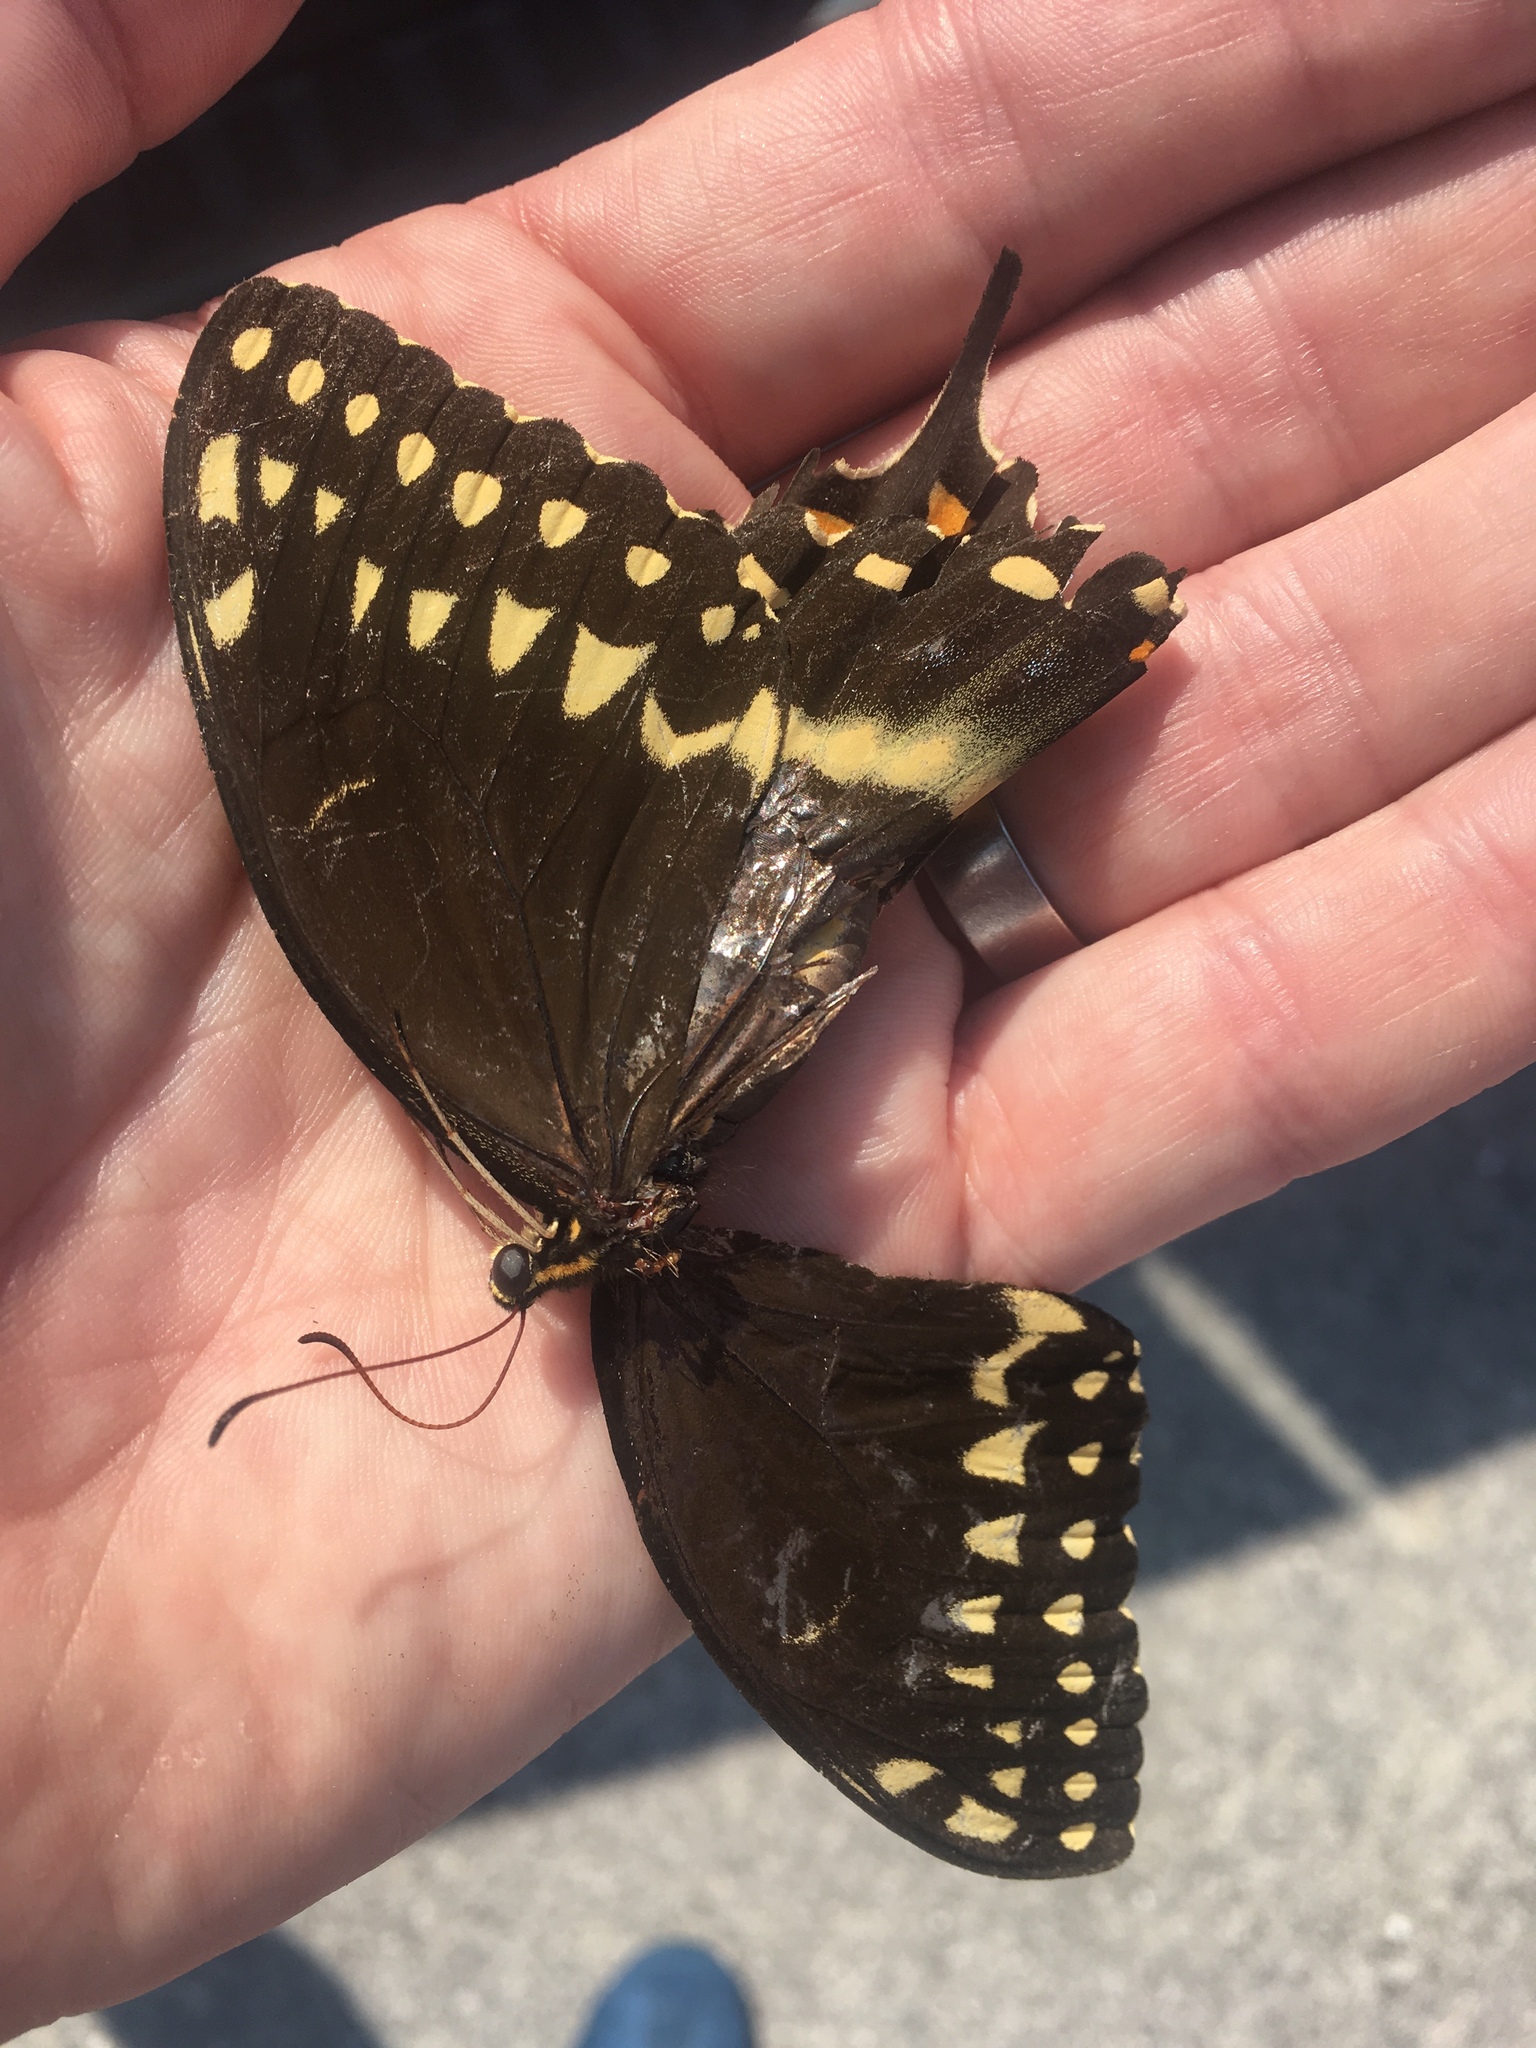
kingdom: Animalia
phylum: Arthropoda
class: Insecta
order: Lepidoptera
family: Papilionidae
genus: Papilio
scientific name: Papilio palamedes
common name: Palamedes swallowtail
